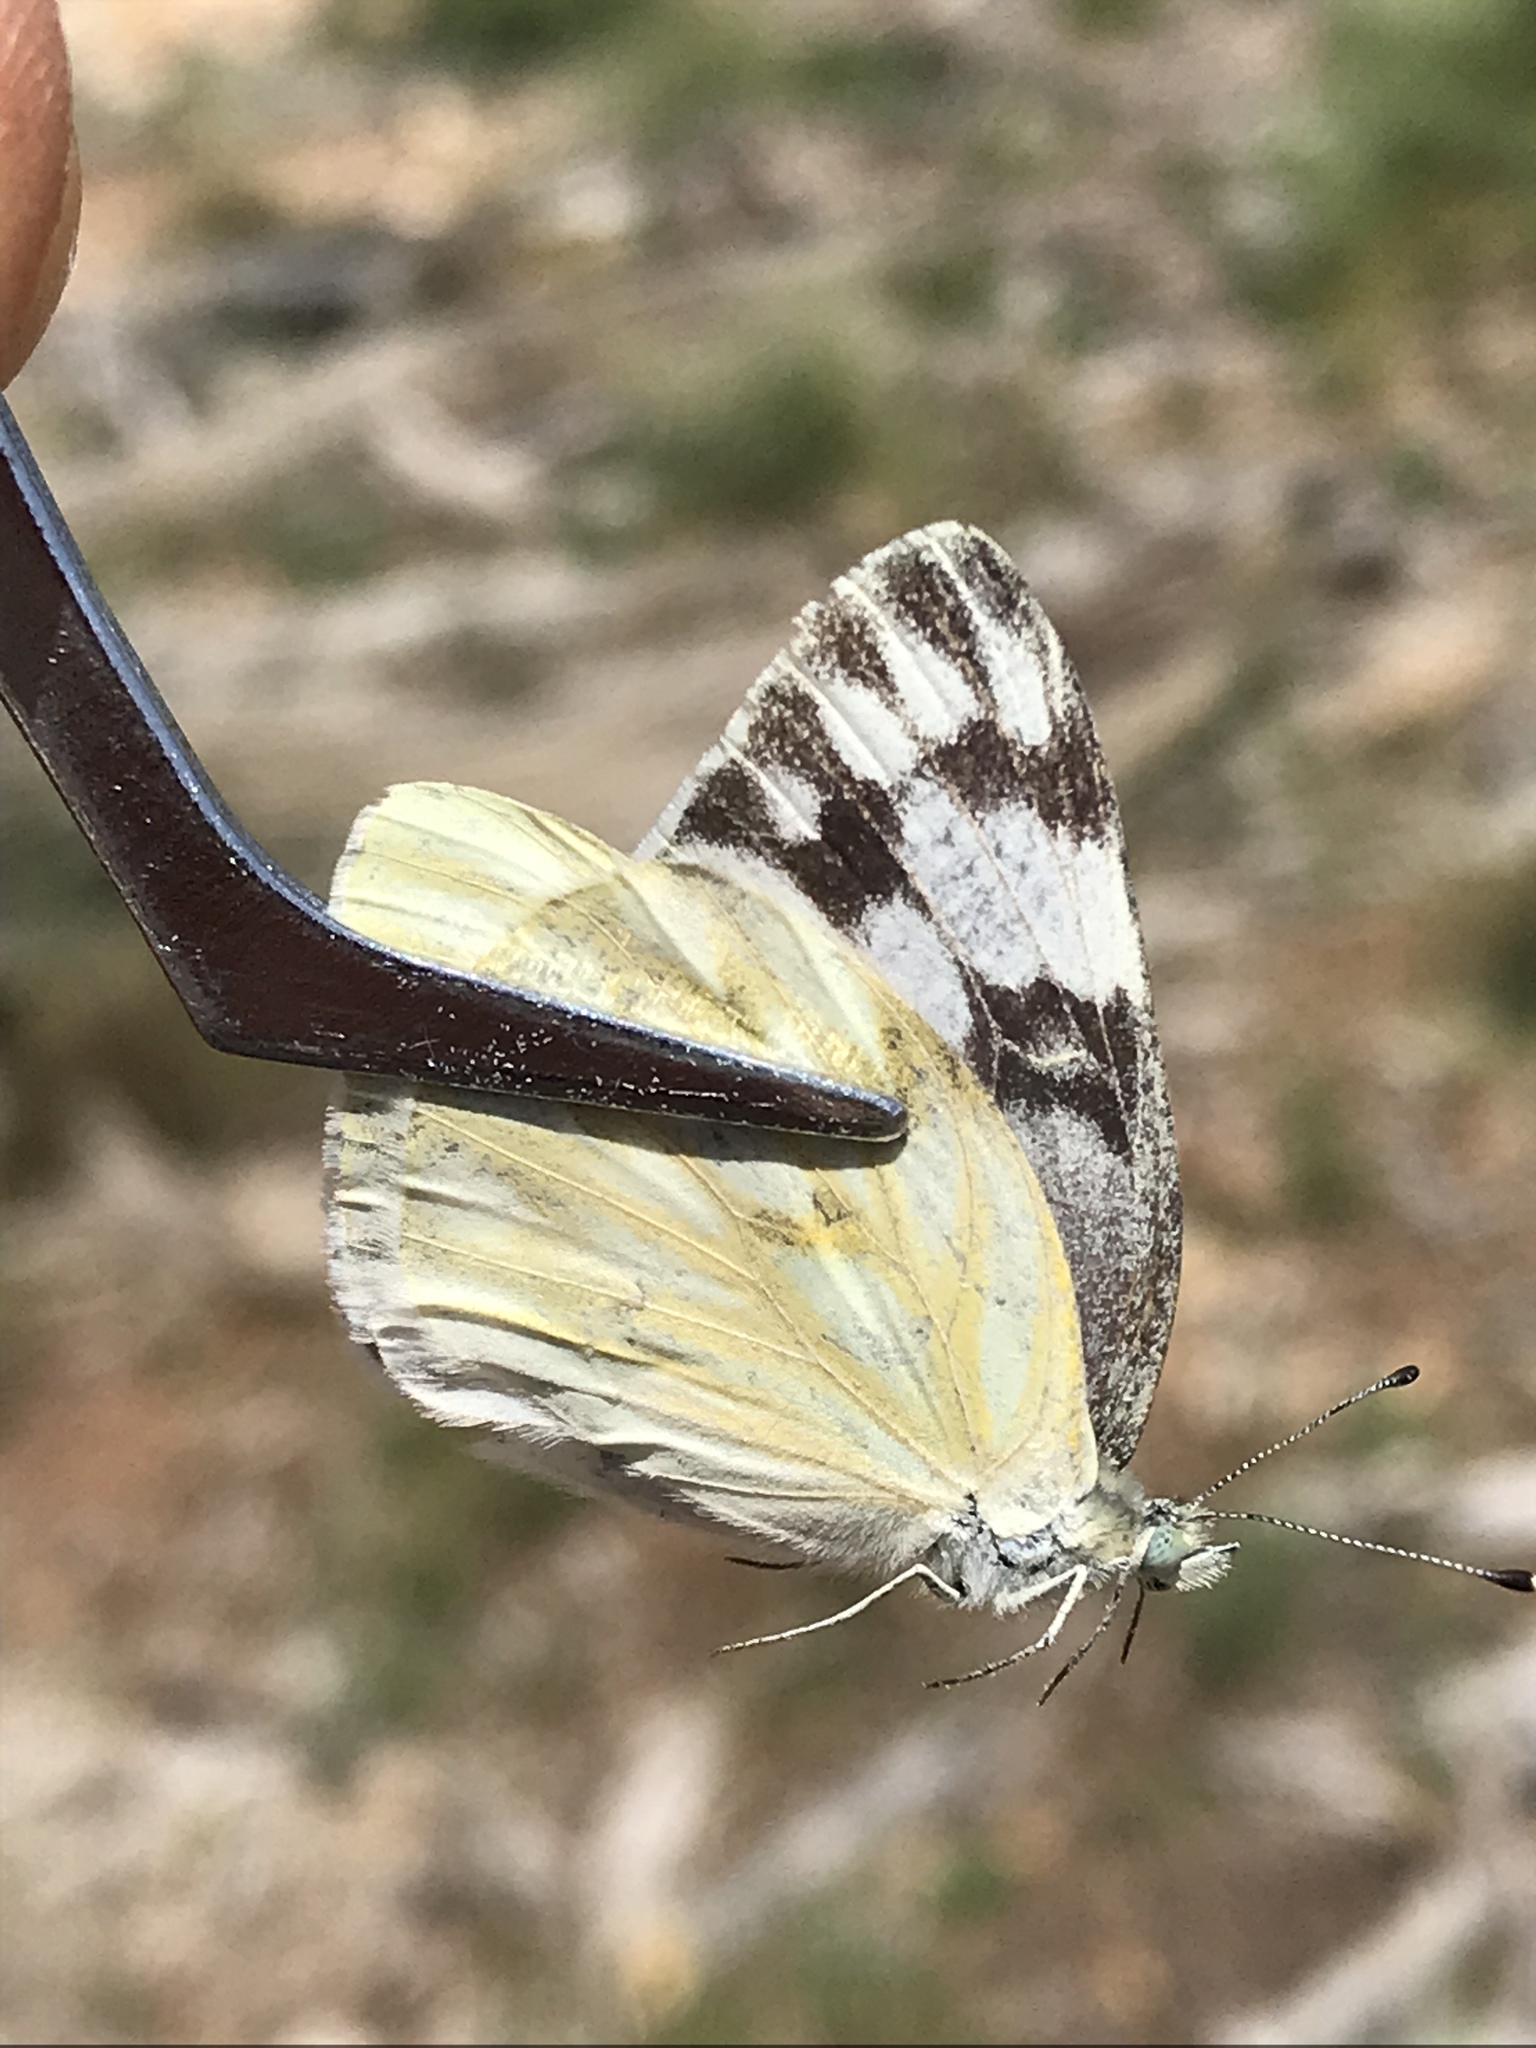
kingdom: Animalia
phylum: Arthropoda
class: Insecta
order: Lepidoptera
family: Pieridae
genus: Pontia
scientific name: Pontia protodice
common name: Checkered white
